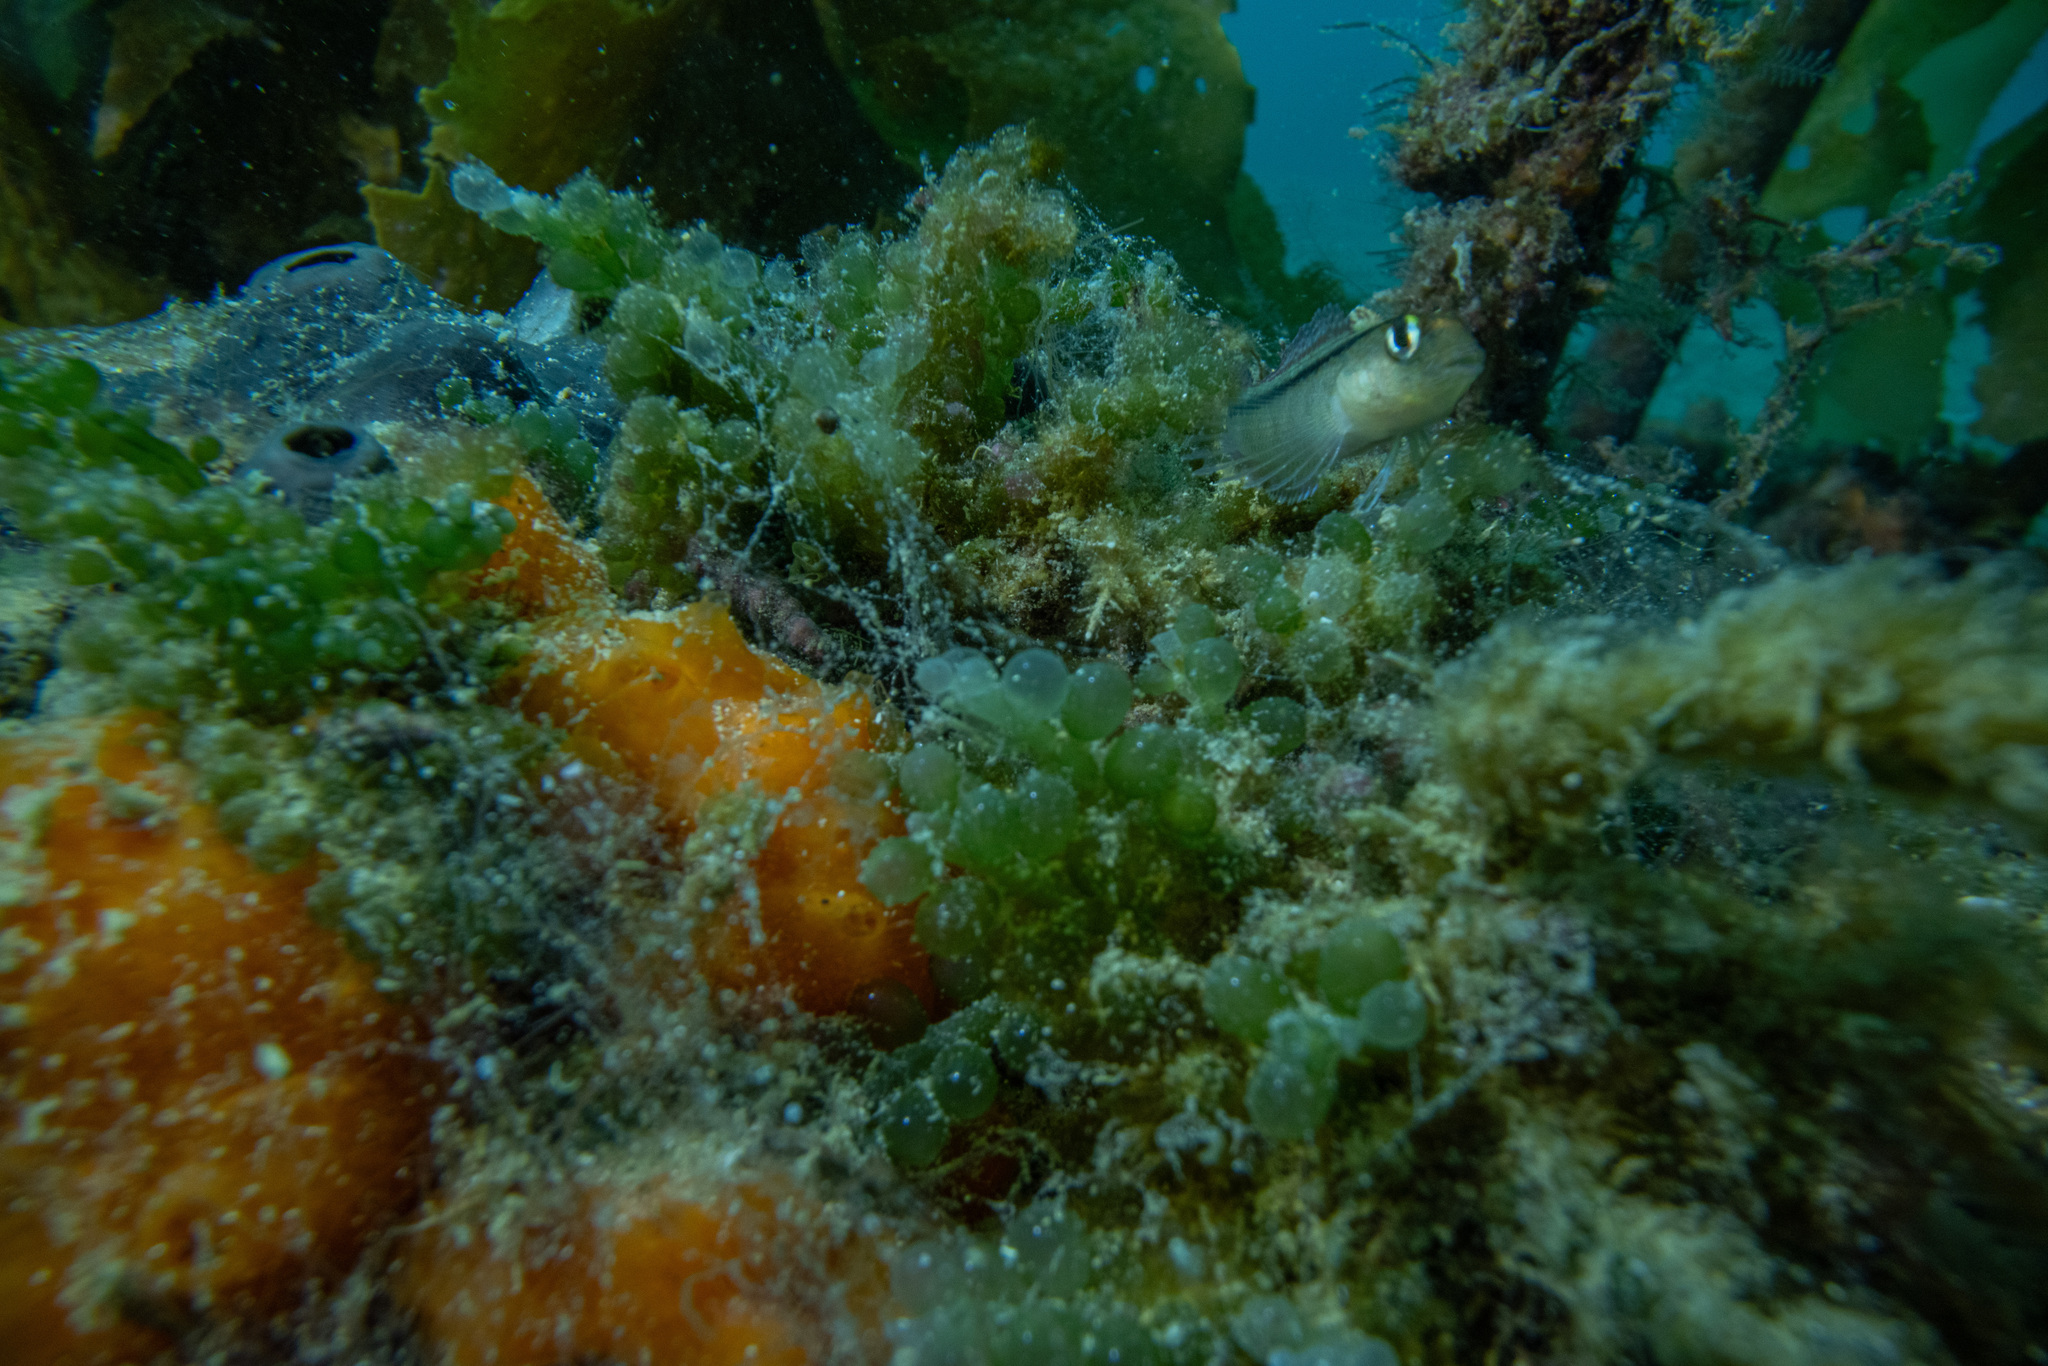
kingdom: Plantae
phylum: Chlorophyta
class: Ulvophyceae
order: Bryopsidales
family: Caulerpaceae
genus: Caulerpa
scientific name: Caulerpa geminata
